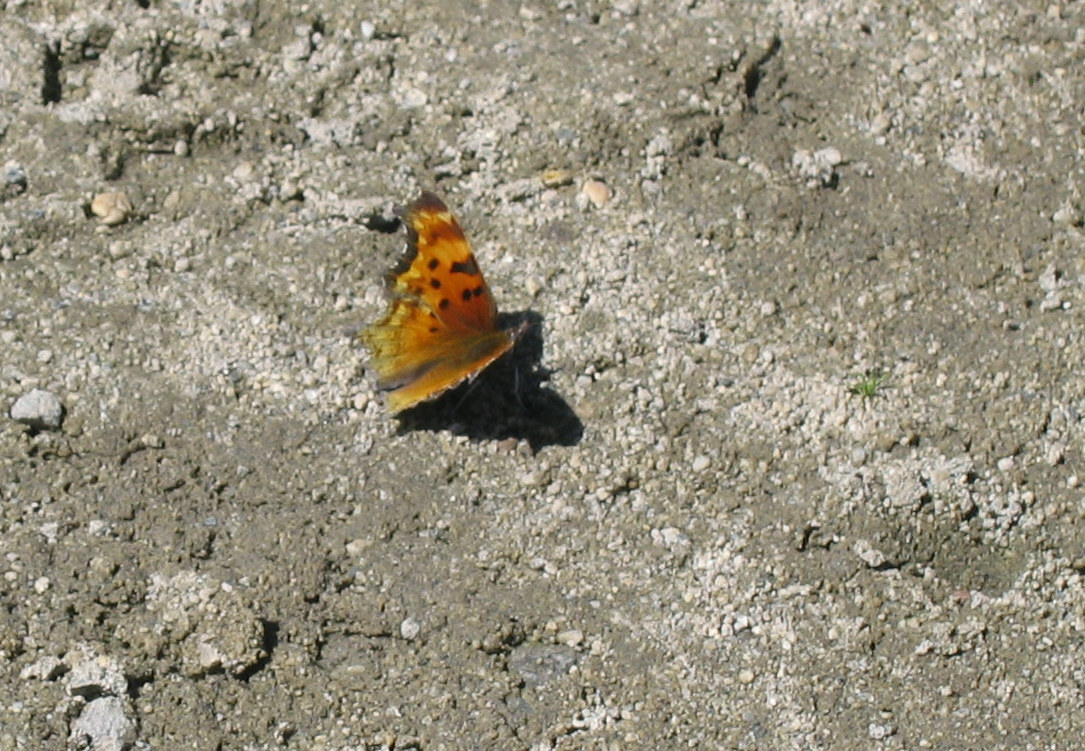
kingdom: Animalia
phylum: Arthropoda
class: Insecta
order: Lepidoptera
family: Nymphalidae
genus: Polygonia
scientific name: Polygonia gracilis
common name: Hoary comma
